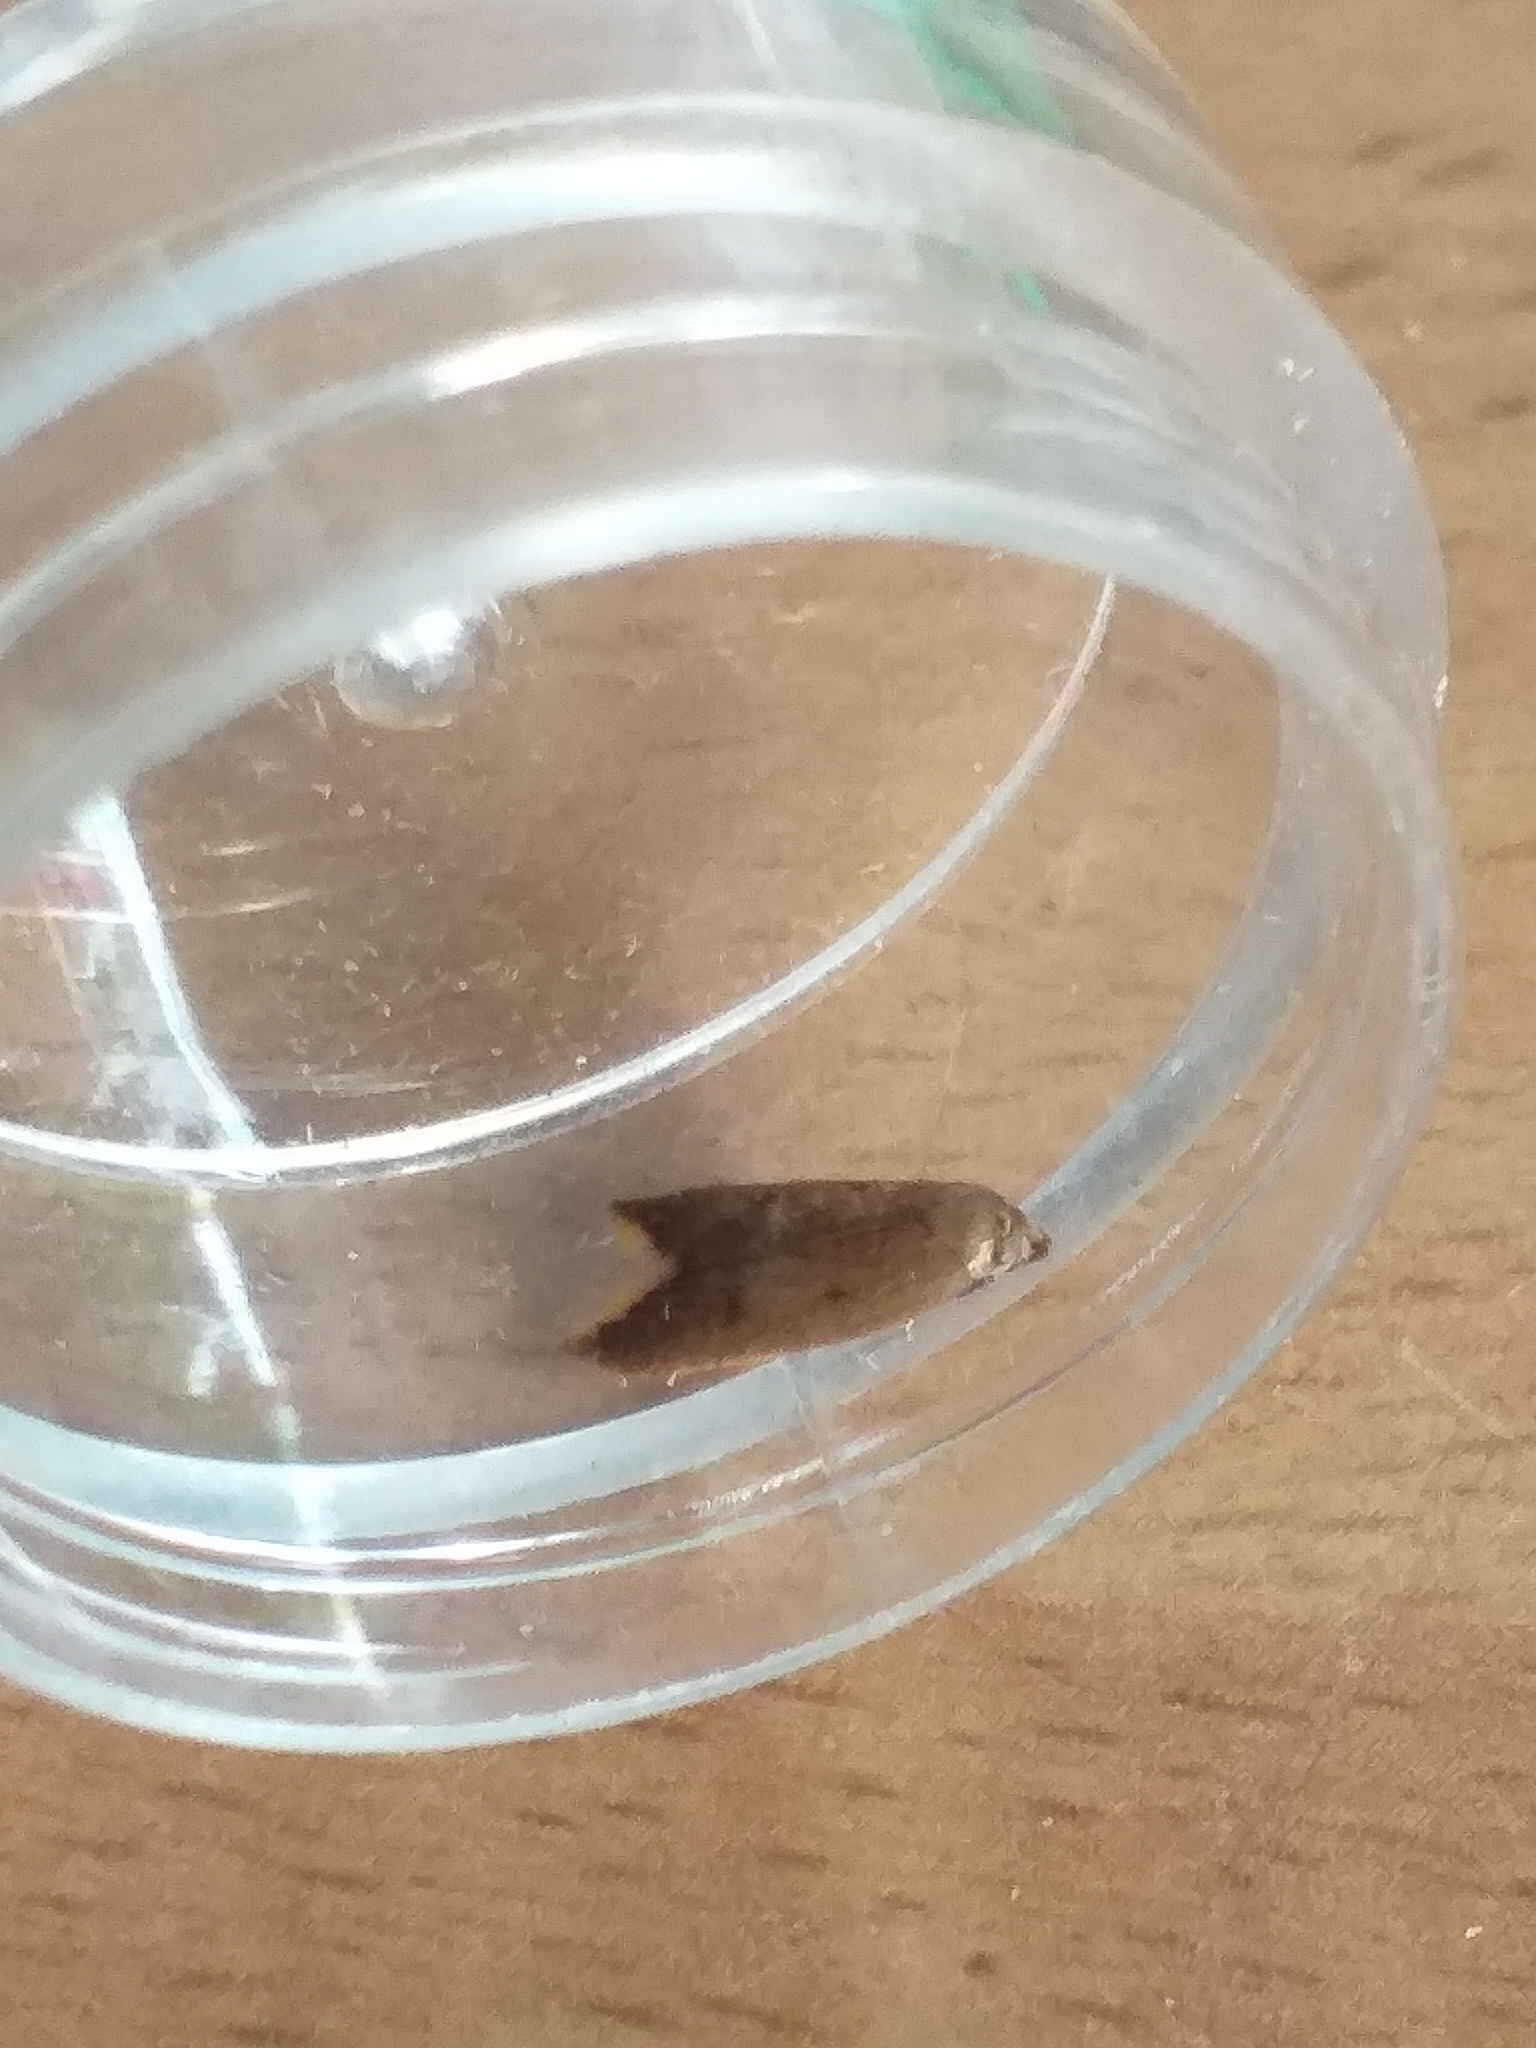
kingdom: Animalia
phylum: Arthropoda
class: Insecta
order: Lepidoptera
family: Oecophoridae
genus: Tachystola
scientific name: Tachystola acroxantha
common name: Ruddy streak
